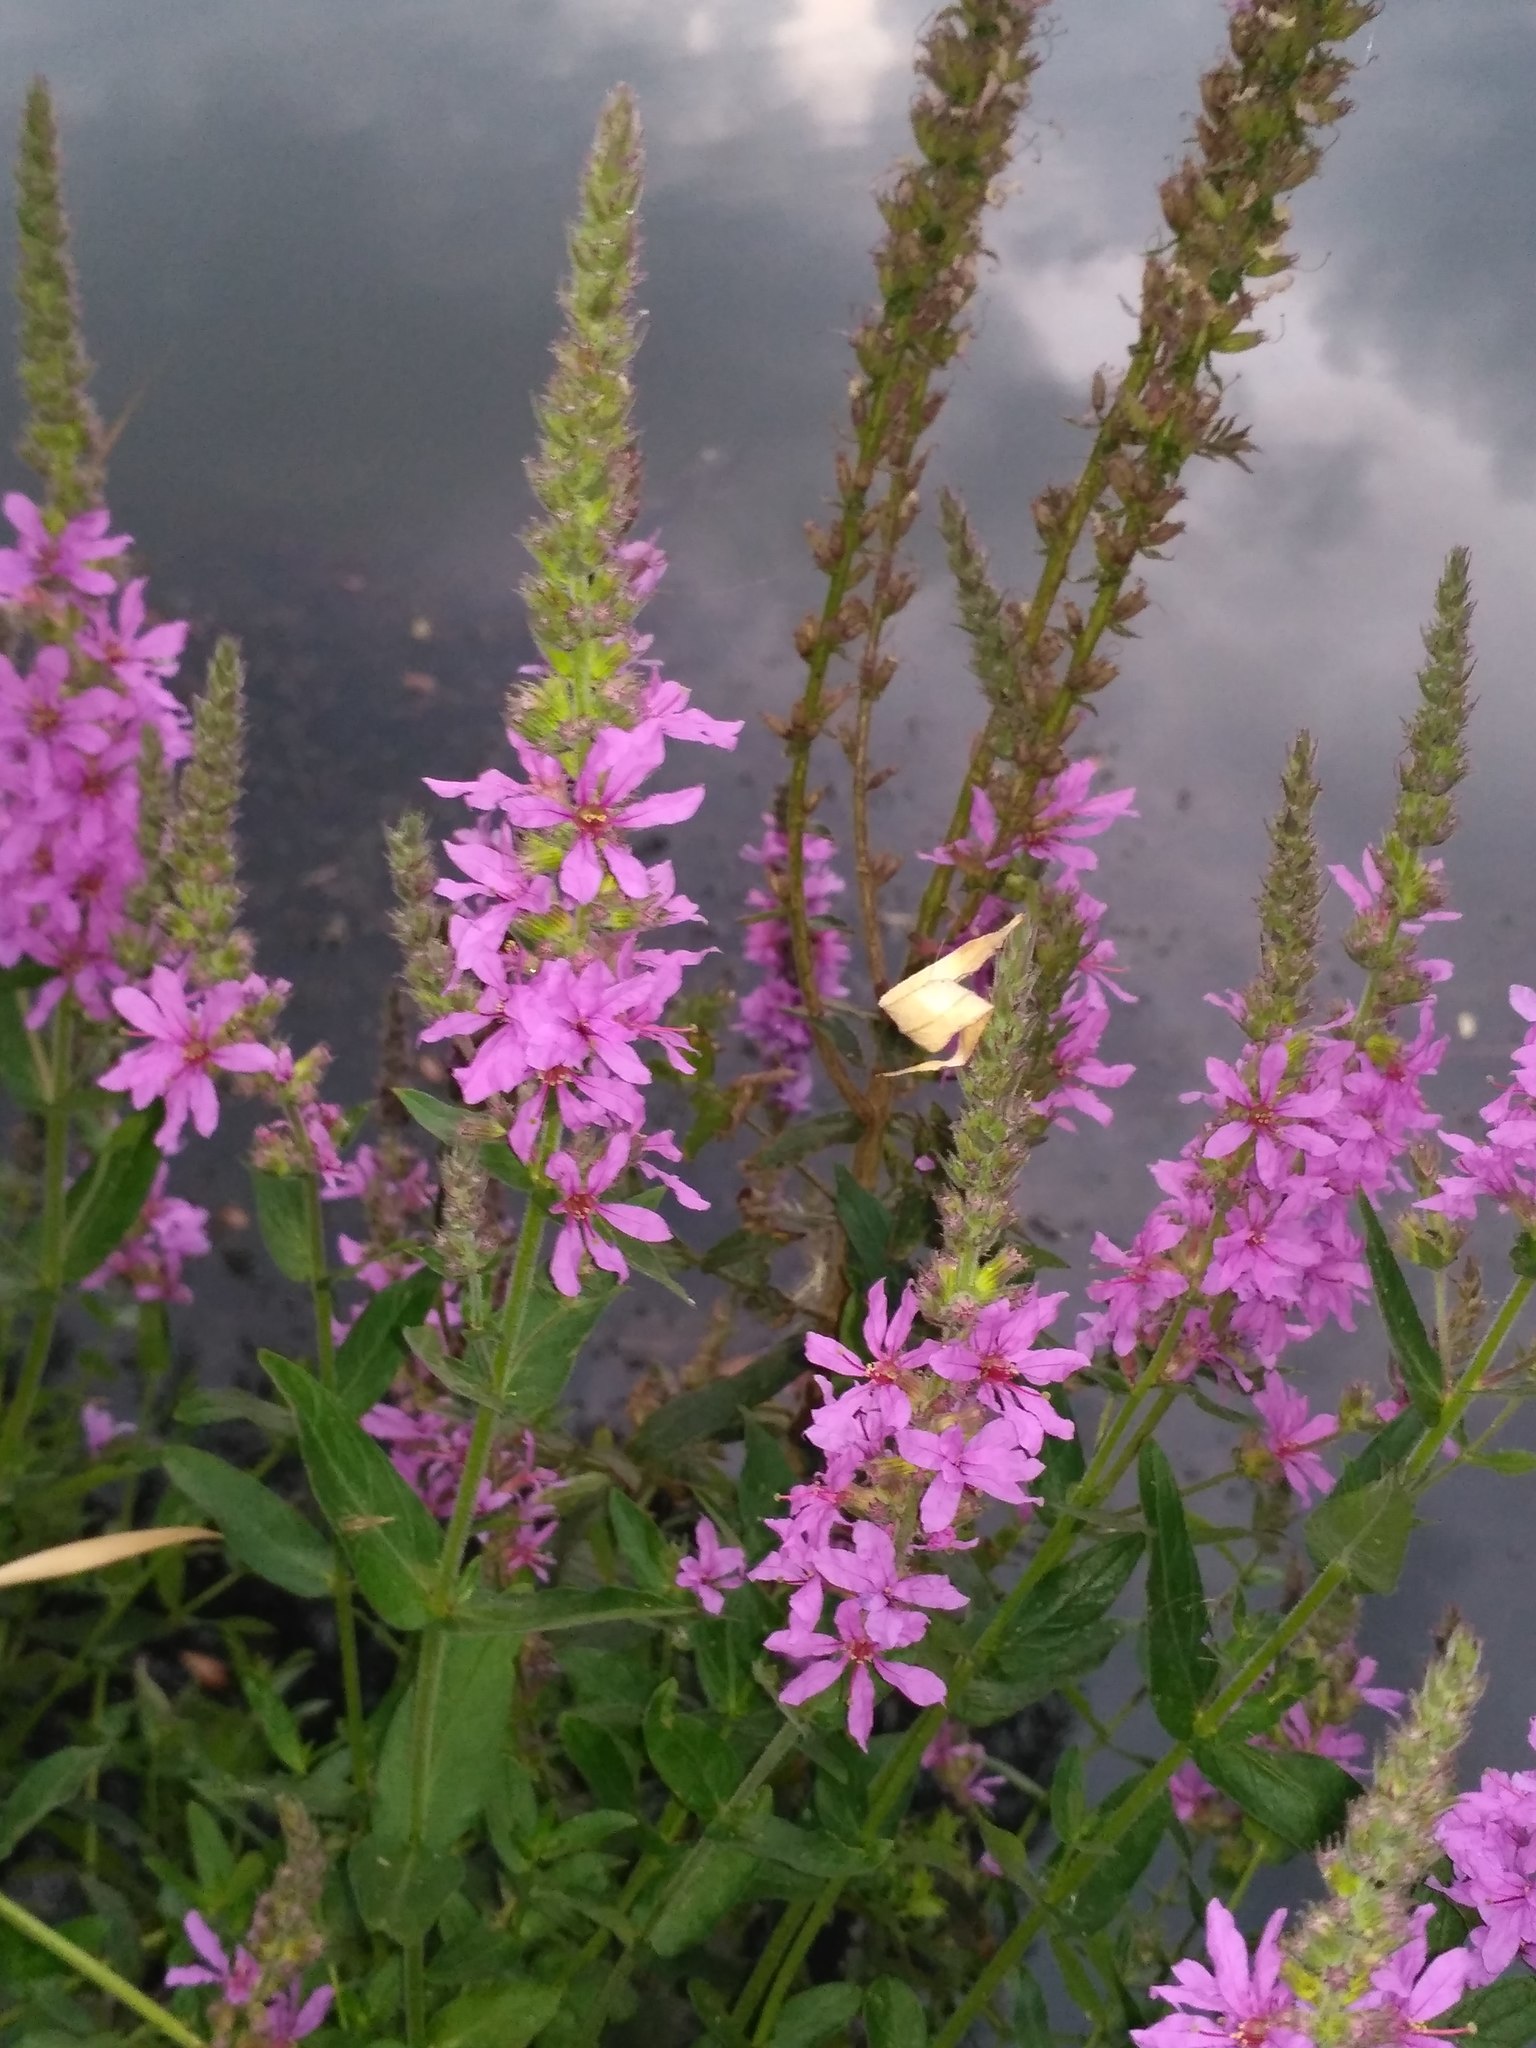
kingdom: Plantae
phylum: Tracheophyta
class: Magnoliopsida
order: Myrtales
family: Lythraceae
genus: Lythrum
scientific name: Lythrum salicaria
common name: Purple loosestrife
